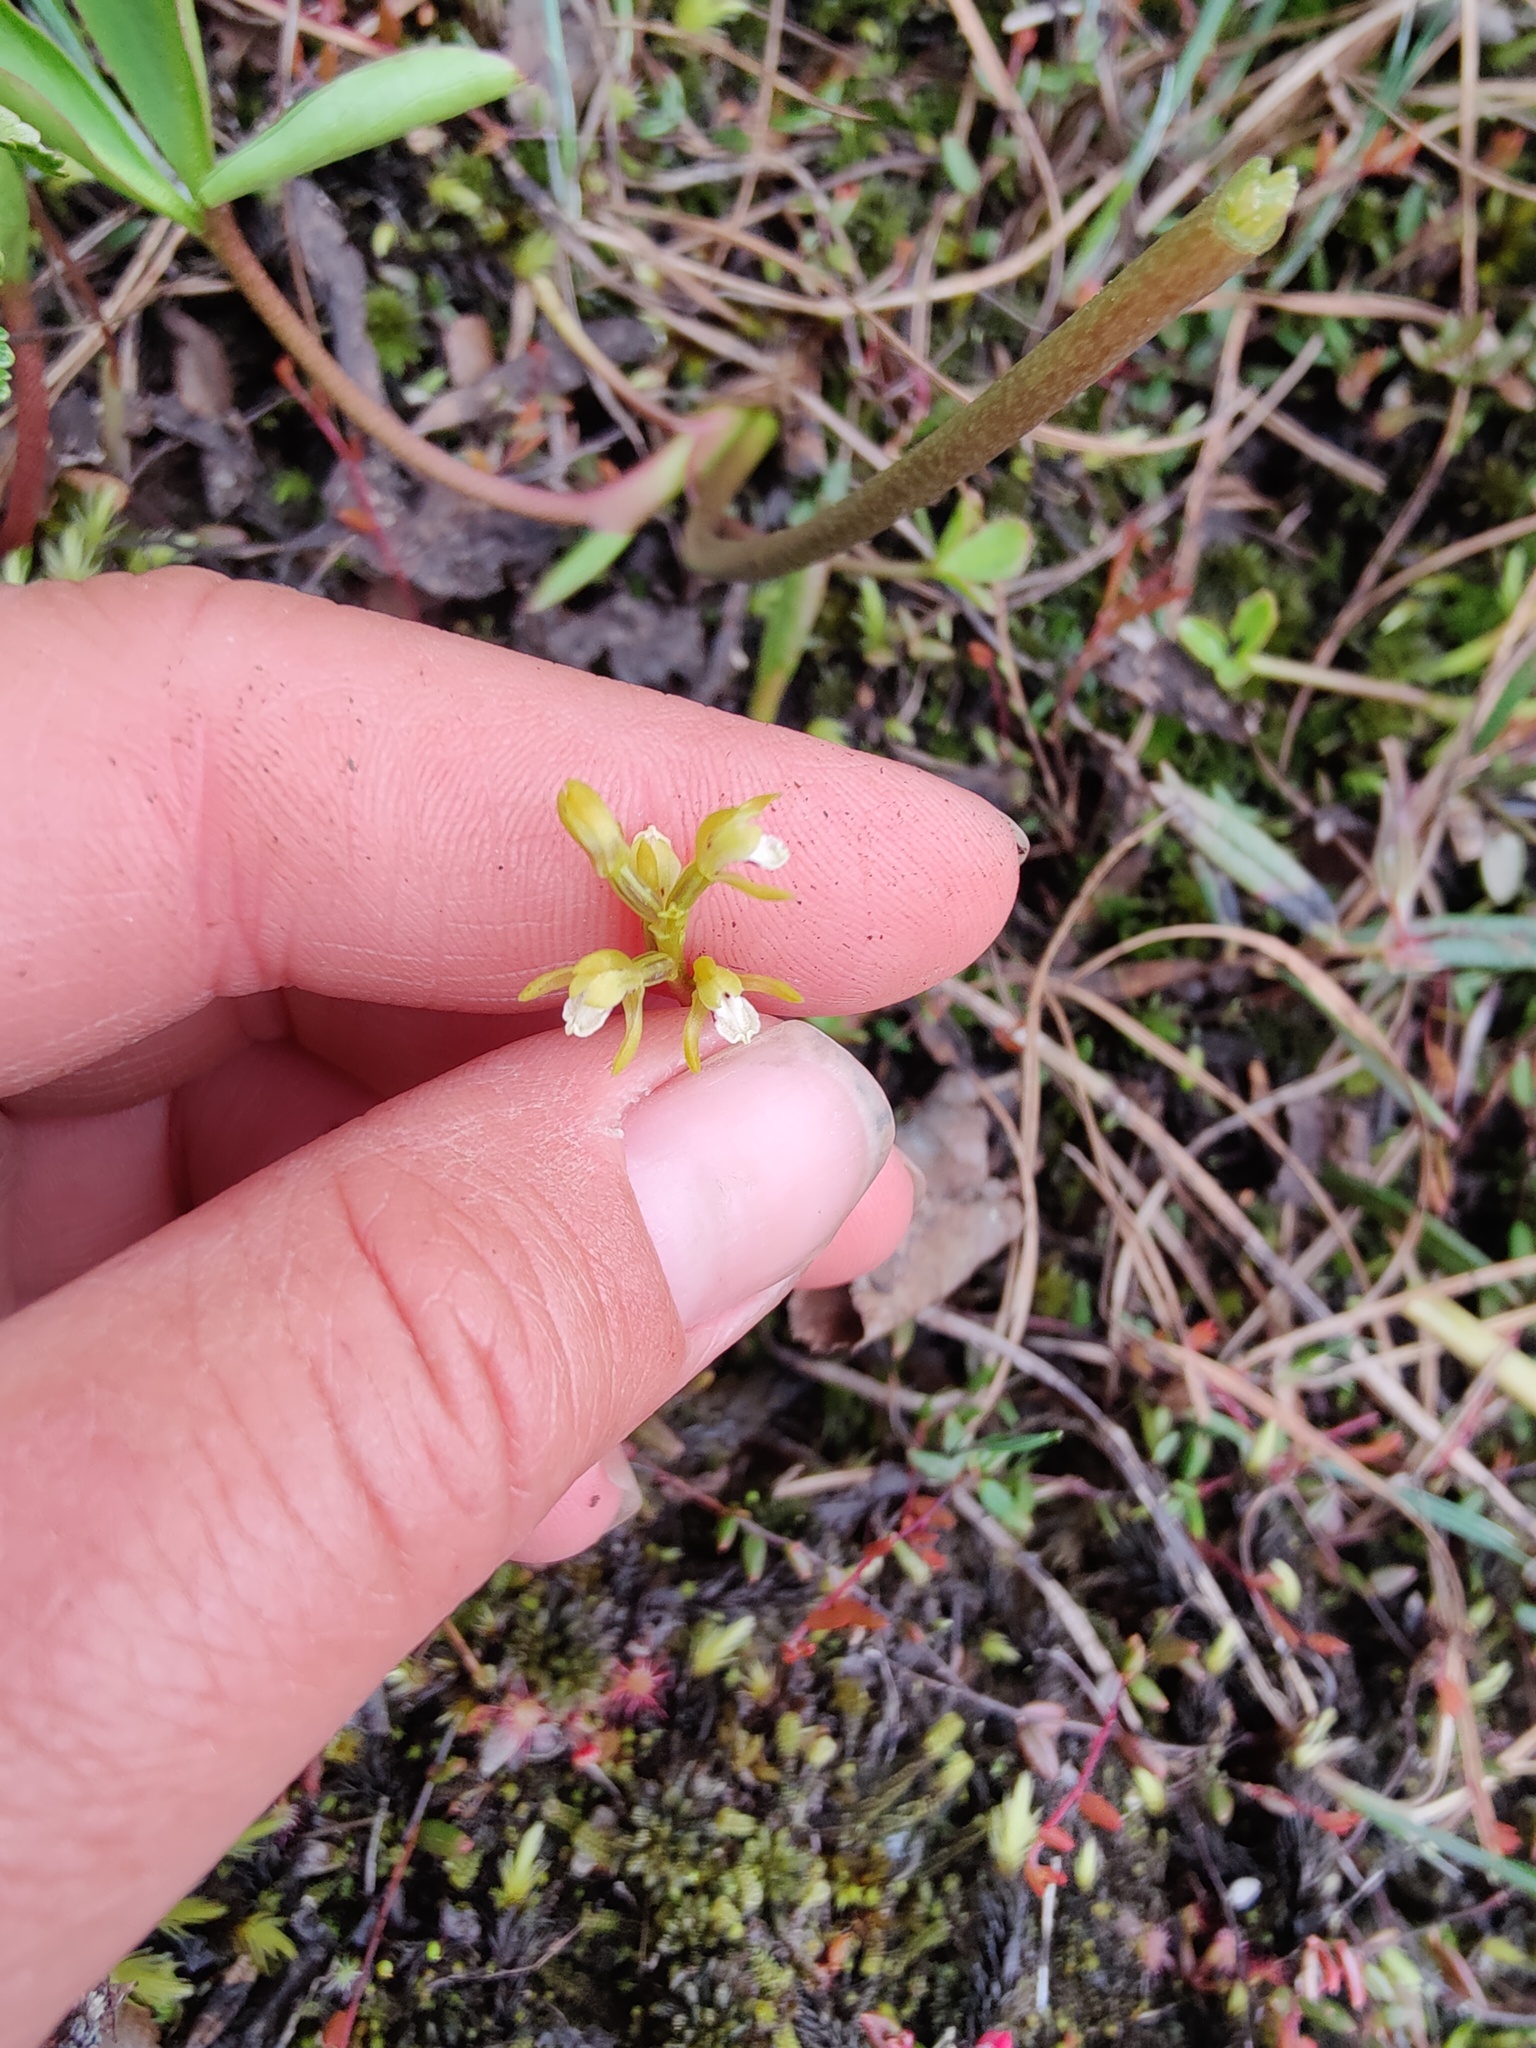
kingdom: Plantae
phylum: Tracheophyta
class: Liliopsida
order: Asparagales
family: Orchidaceae
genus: Corallorhiza
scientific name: Corallorhiza trifida
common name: Yellow coralroot
